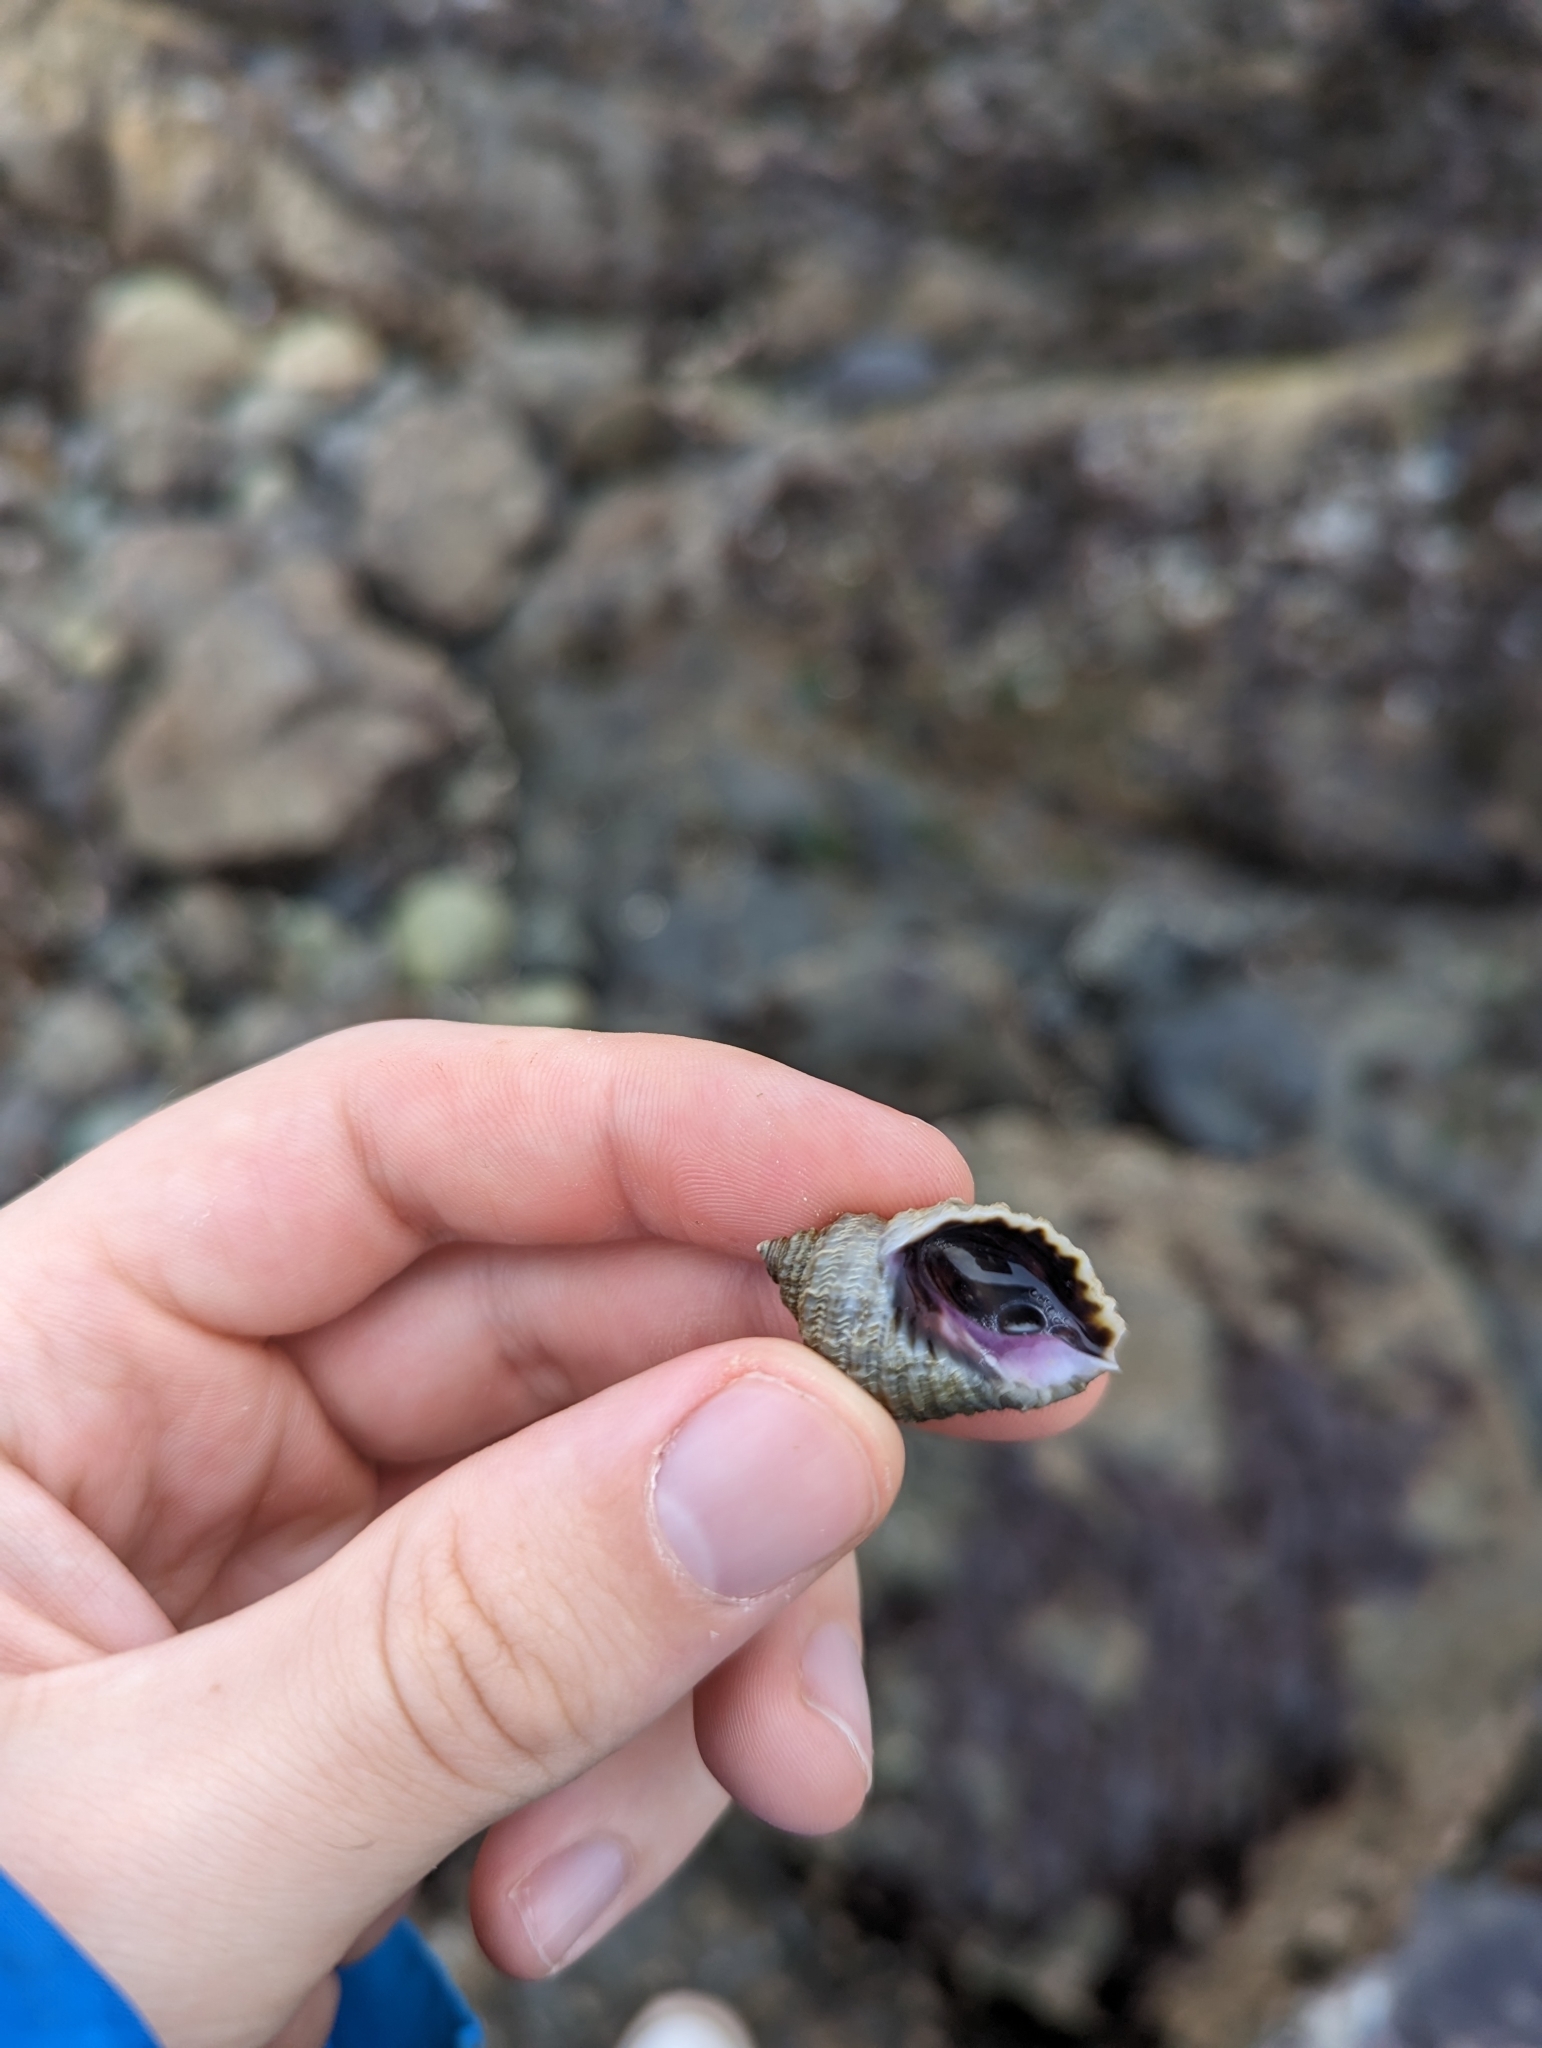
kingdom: Animalia
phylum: Mollusca
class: Gastropoda
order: Neogastropoda
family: Muricidae
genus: Nucella
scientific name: Nucella ostrina
